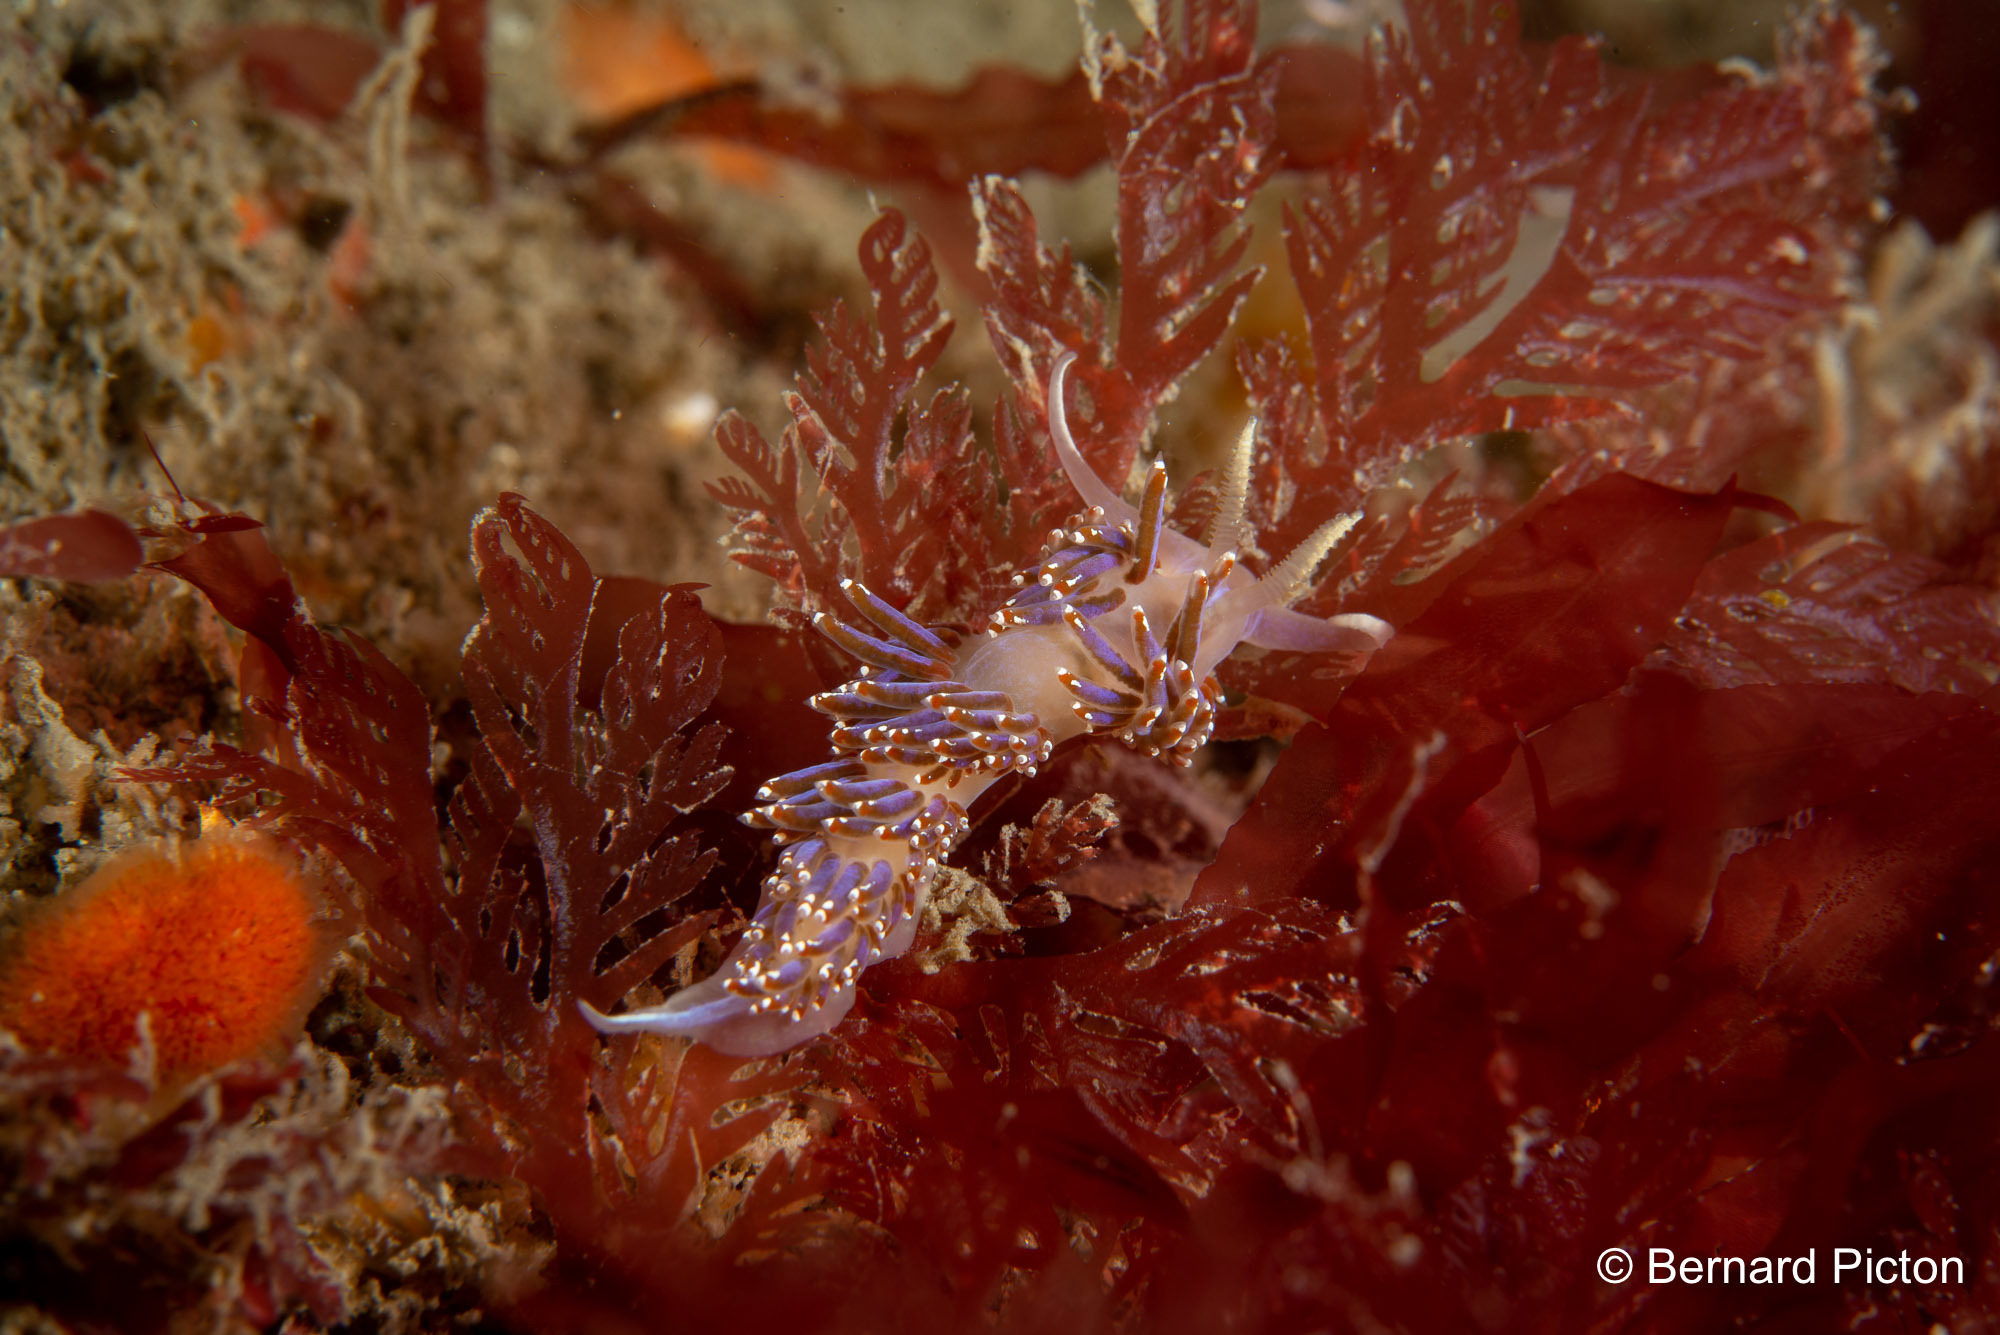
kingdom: Animalia
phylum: Mollusca
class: Gastropoda
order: Nudibranchia
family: Facelinidae
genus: Facelina
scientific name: Facelina auriculata
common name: Slender facelina
